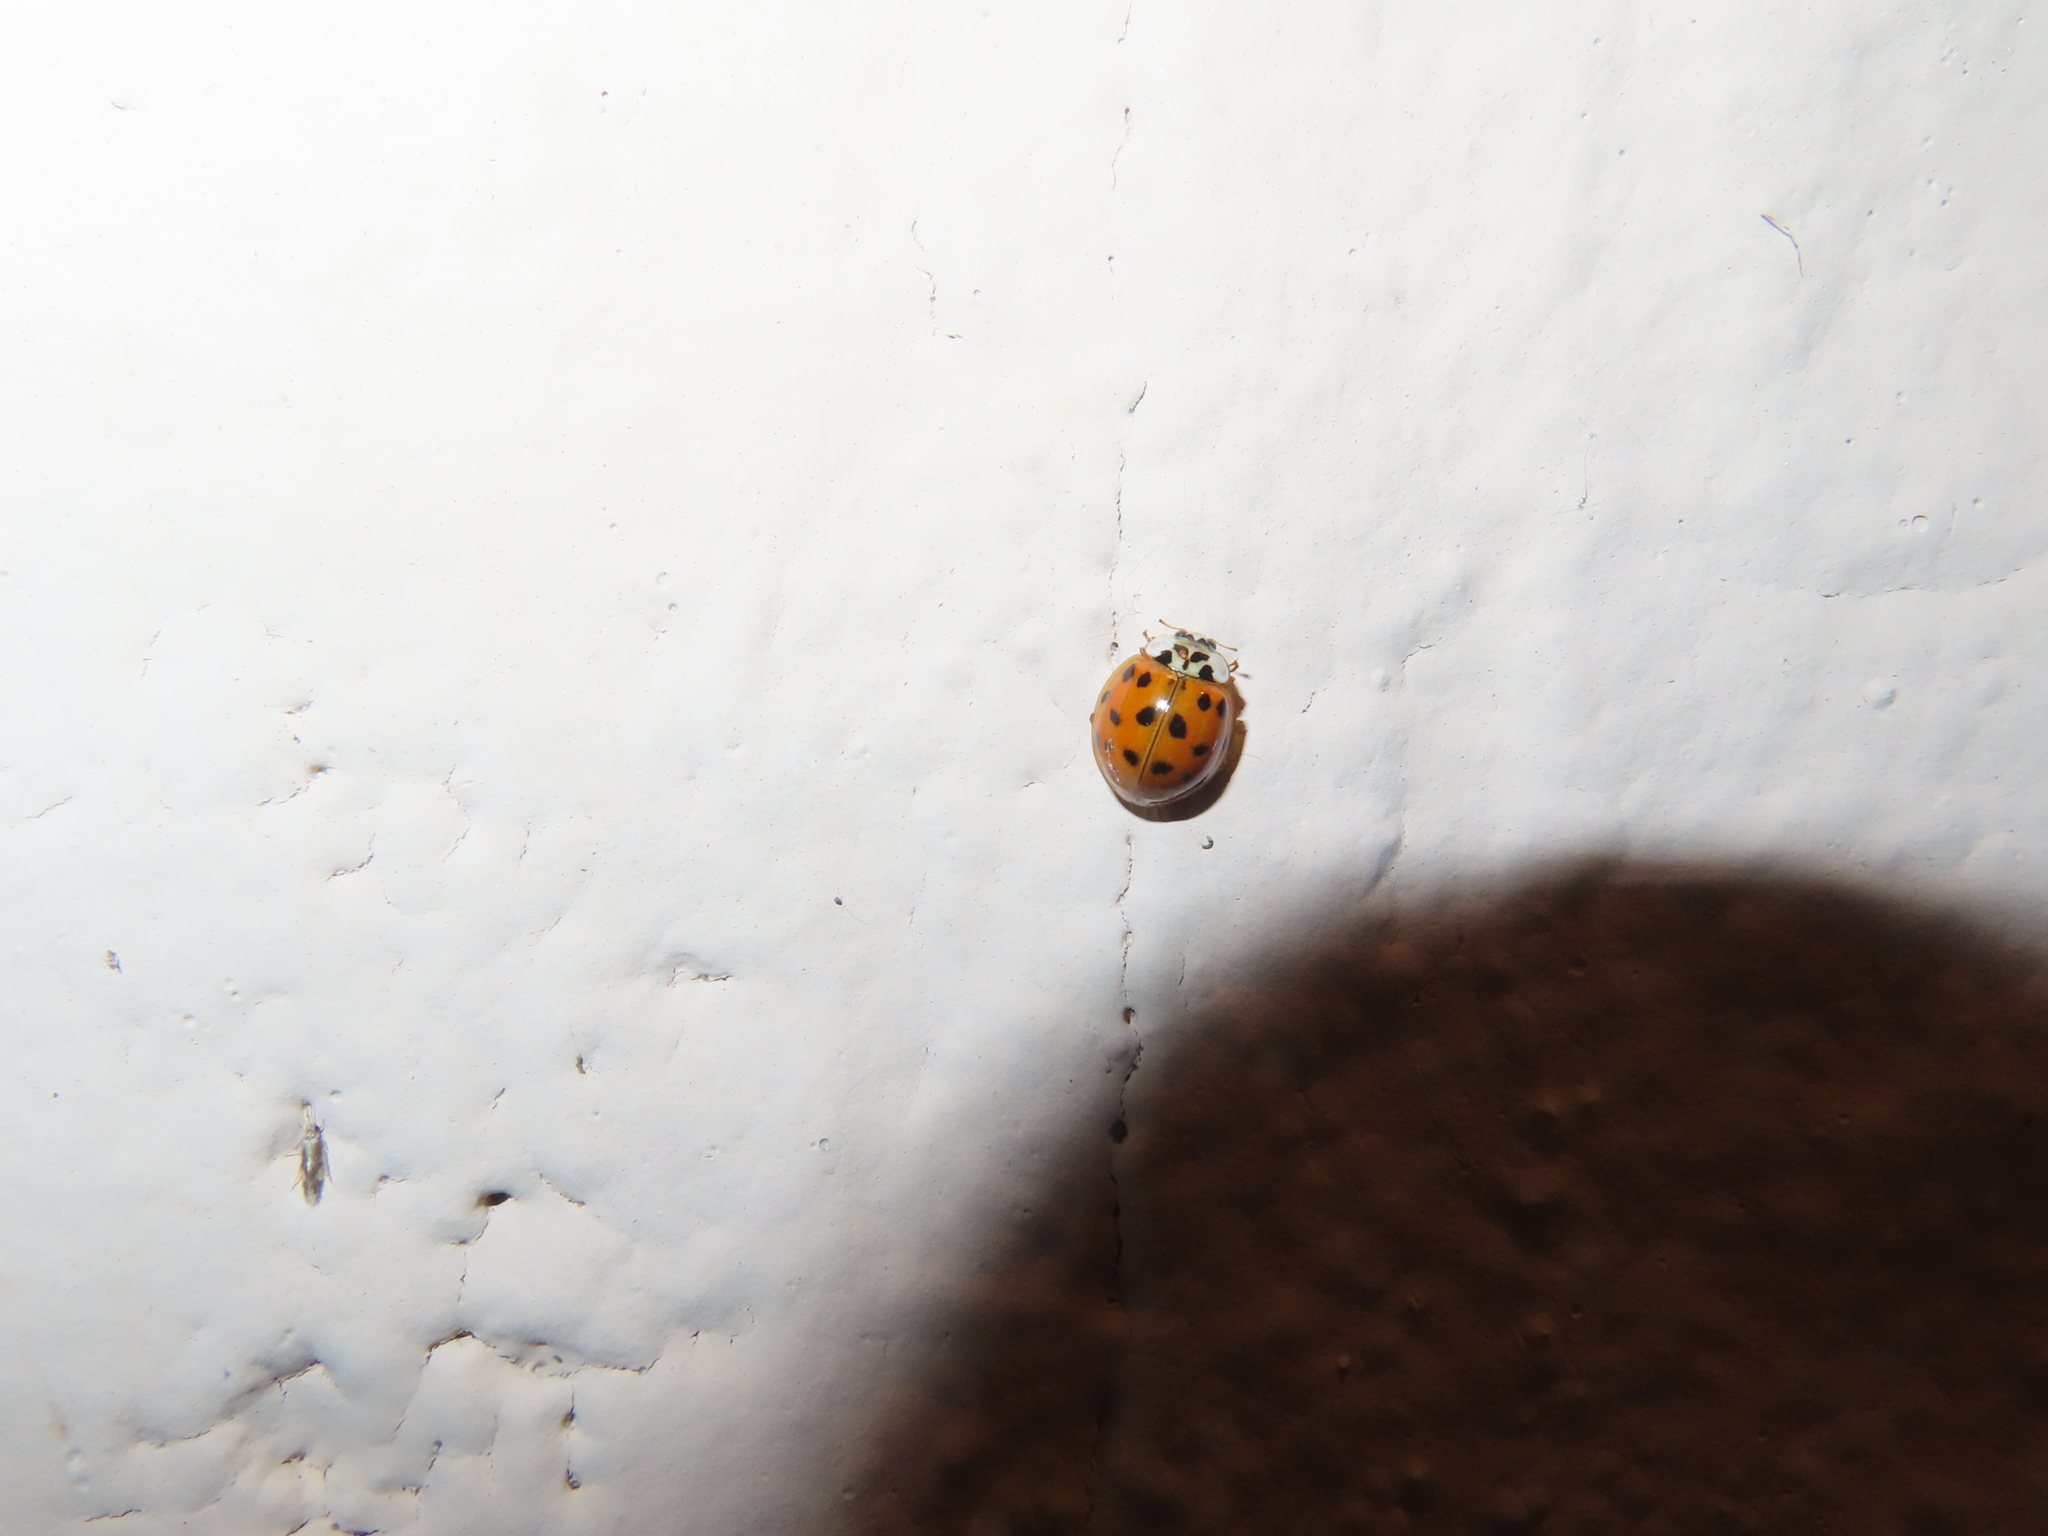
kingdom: Animalia
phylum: Arthropoda
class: Insecta
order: Coleoptera
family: Coccinellidae
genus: Harmonia
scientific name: Harmonia axyridis
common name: Harlequin ladybird
